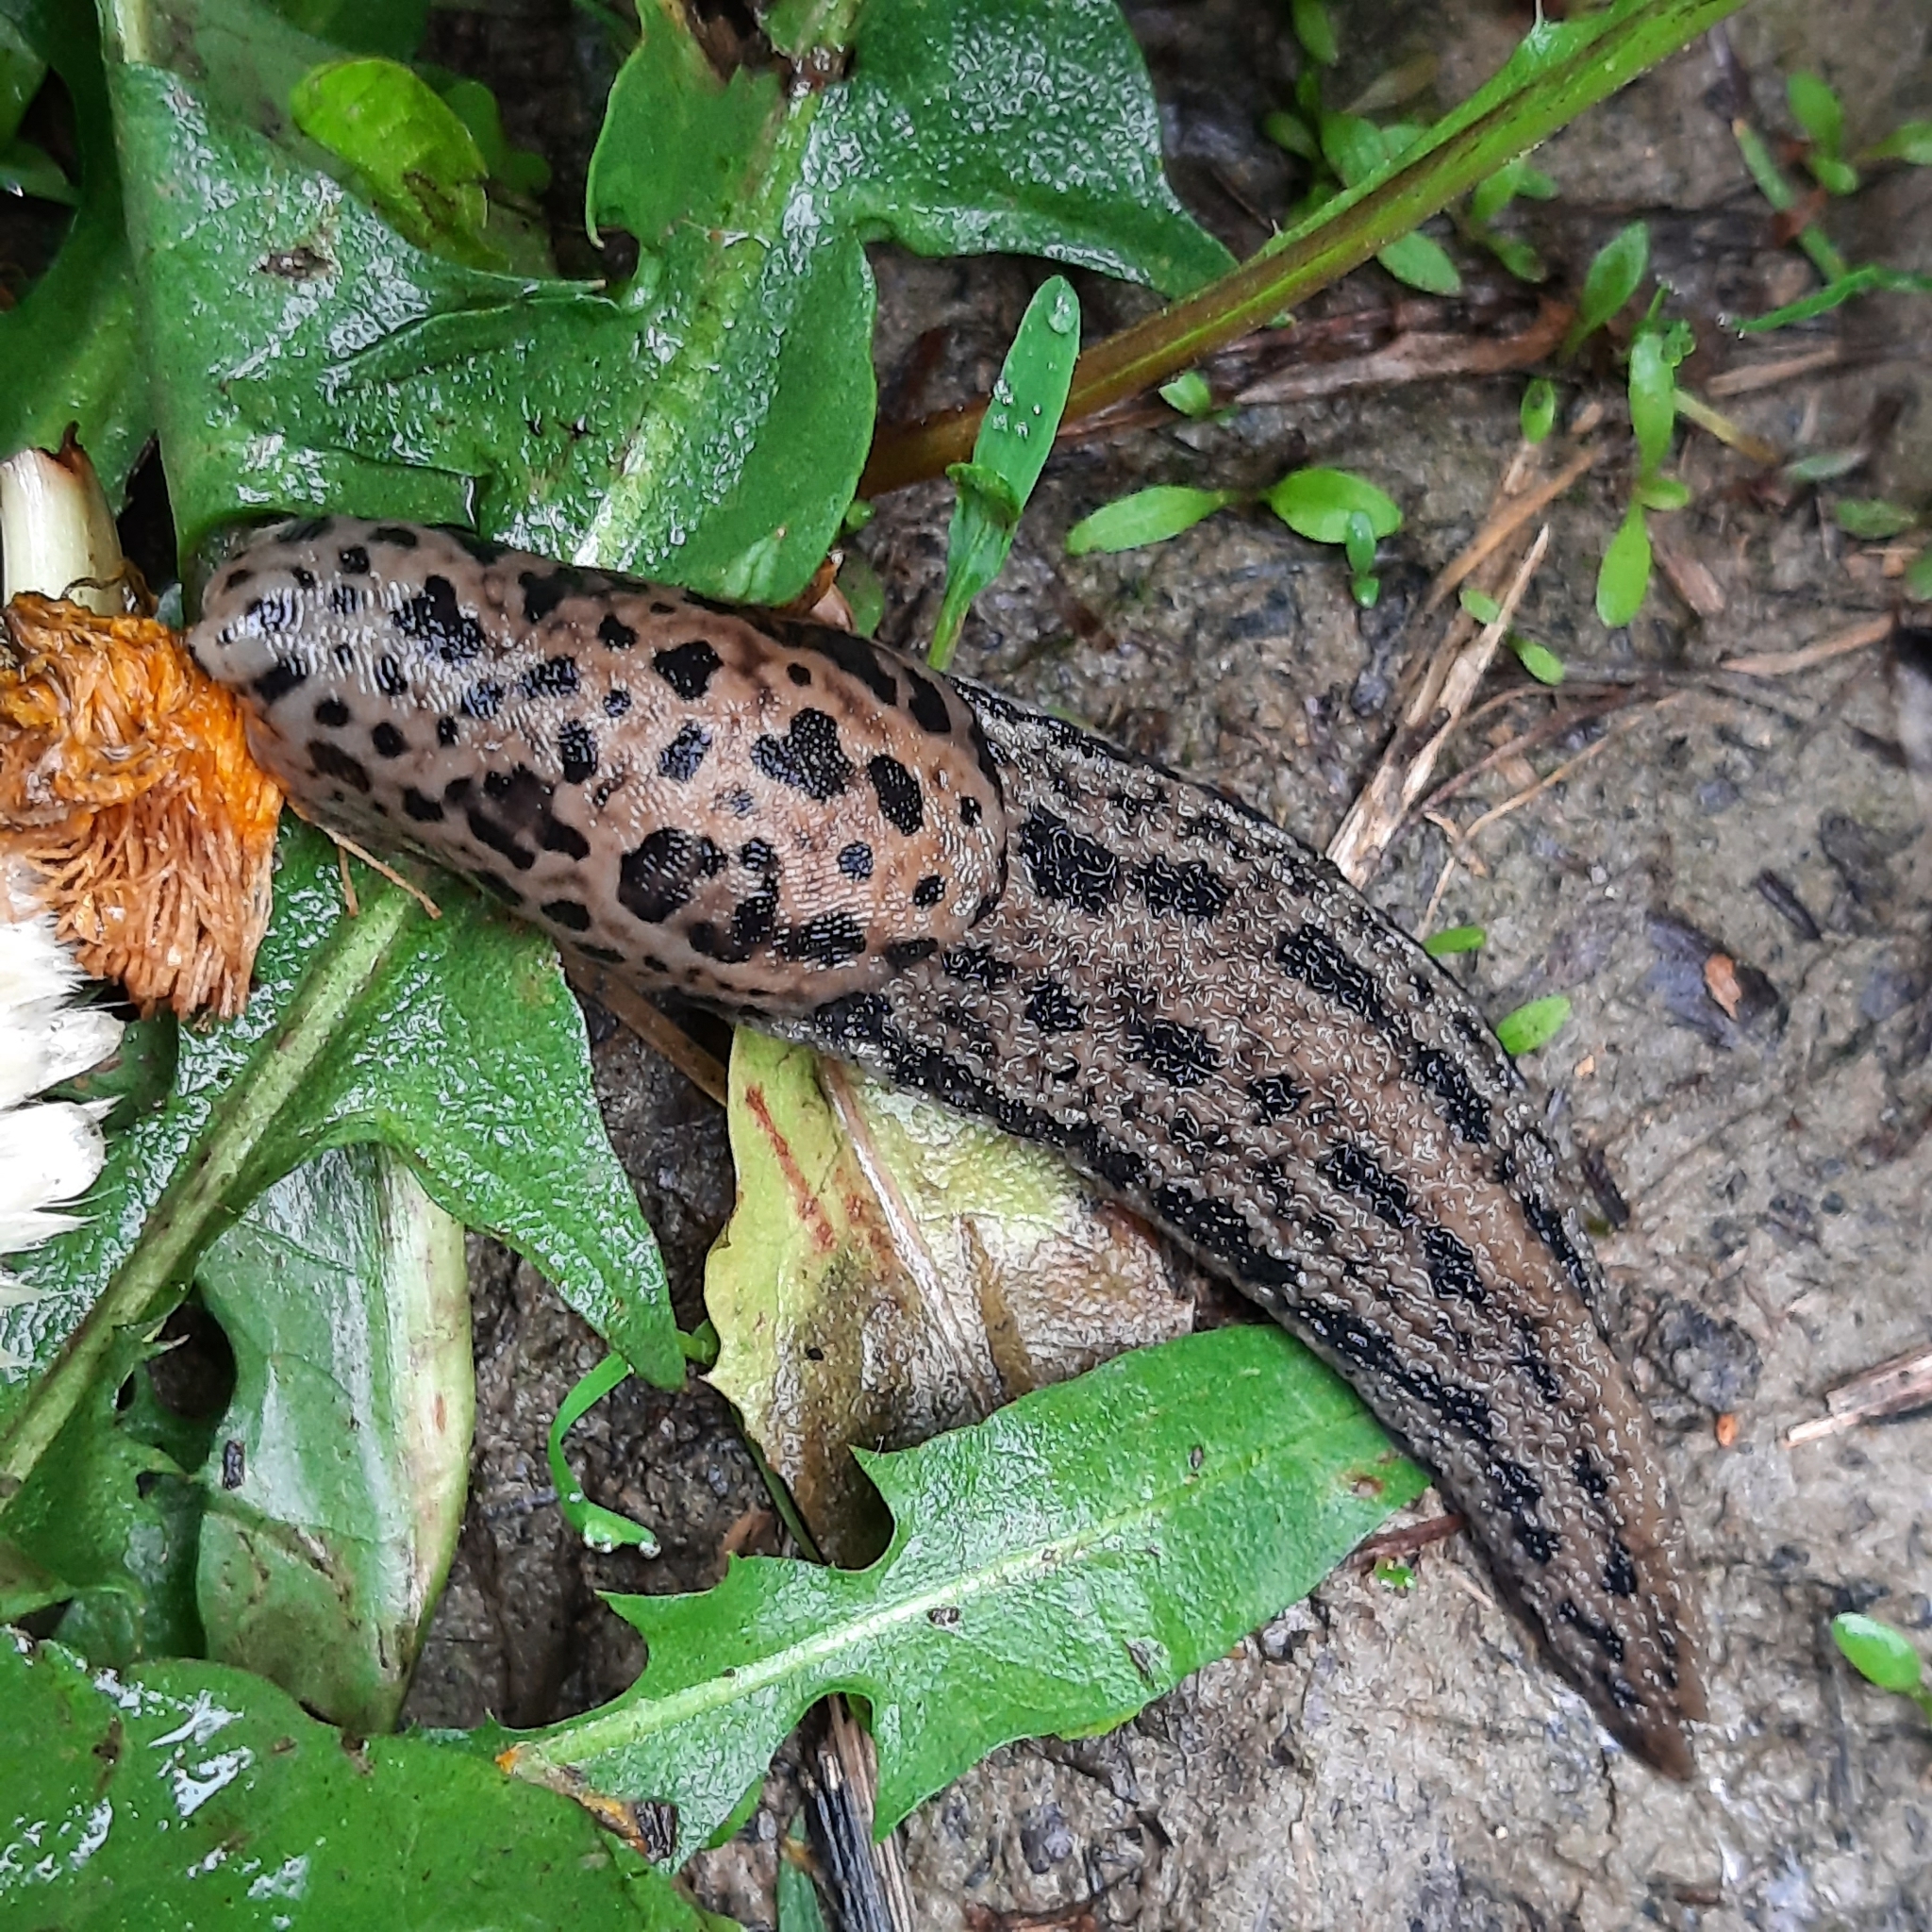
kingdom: Animalia
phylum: Mollusca
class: Gastropoda
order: Stylommatophora
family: Limacidae
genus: Limax
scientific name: Limax maximus
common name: Great grey slug
